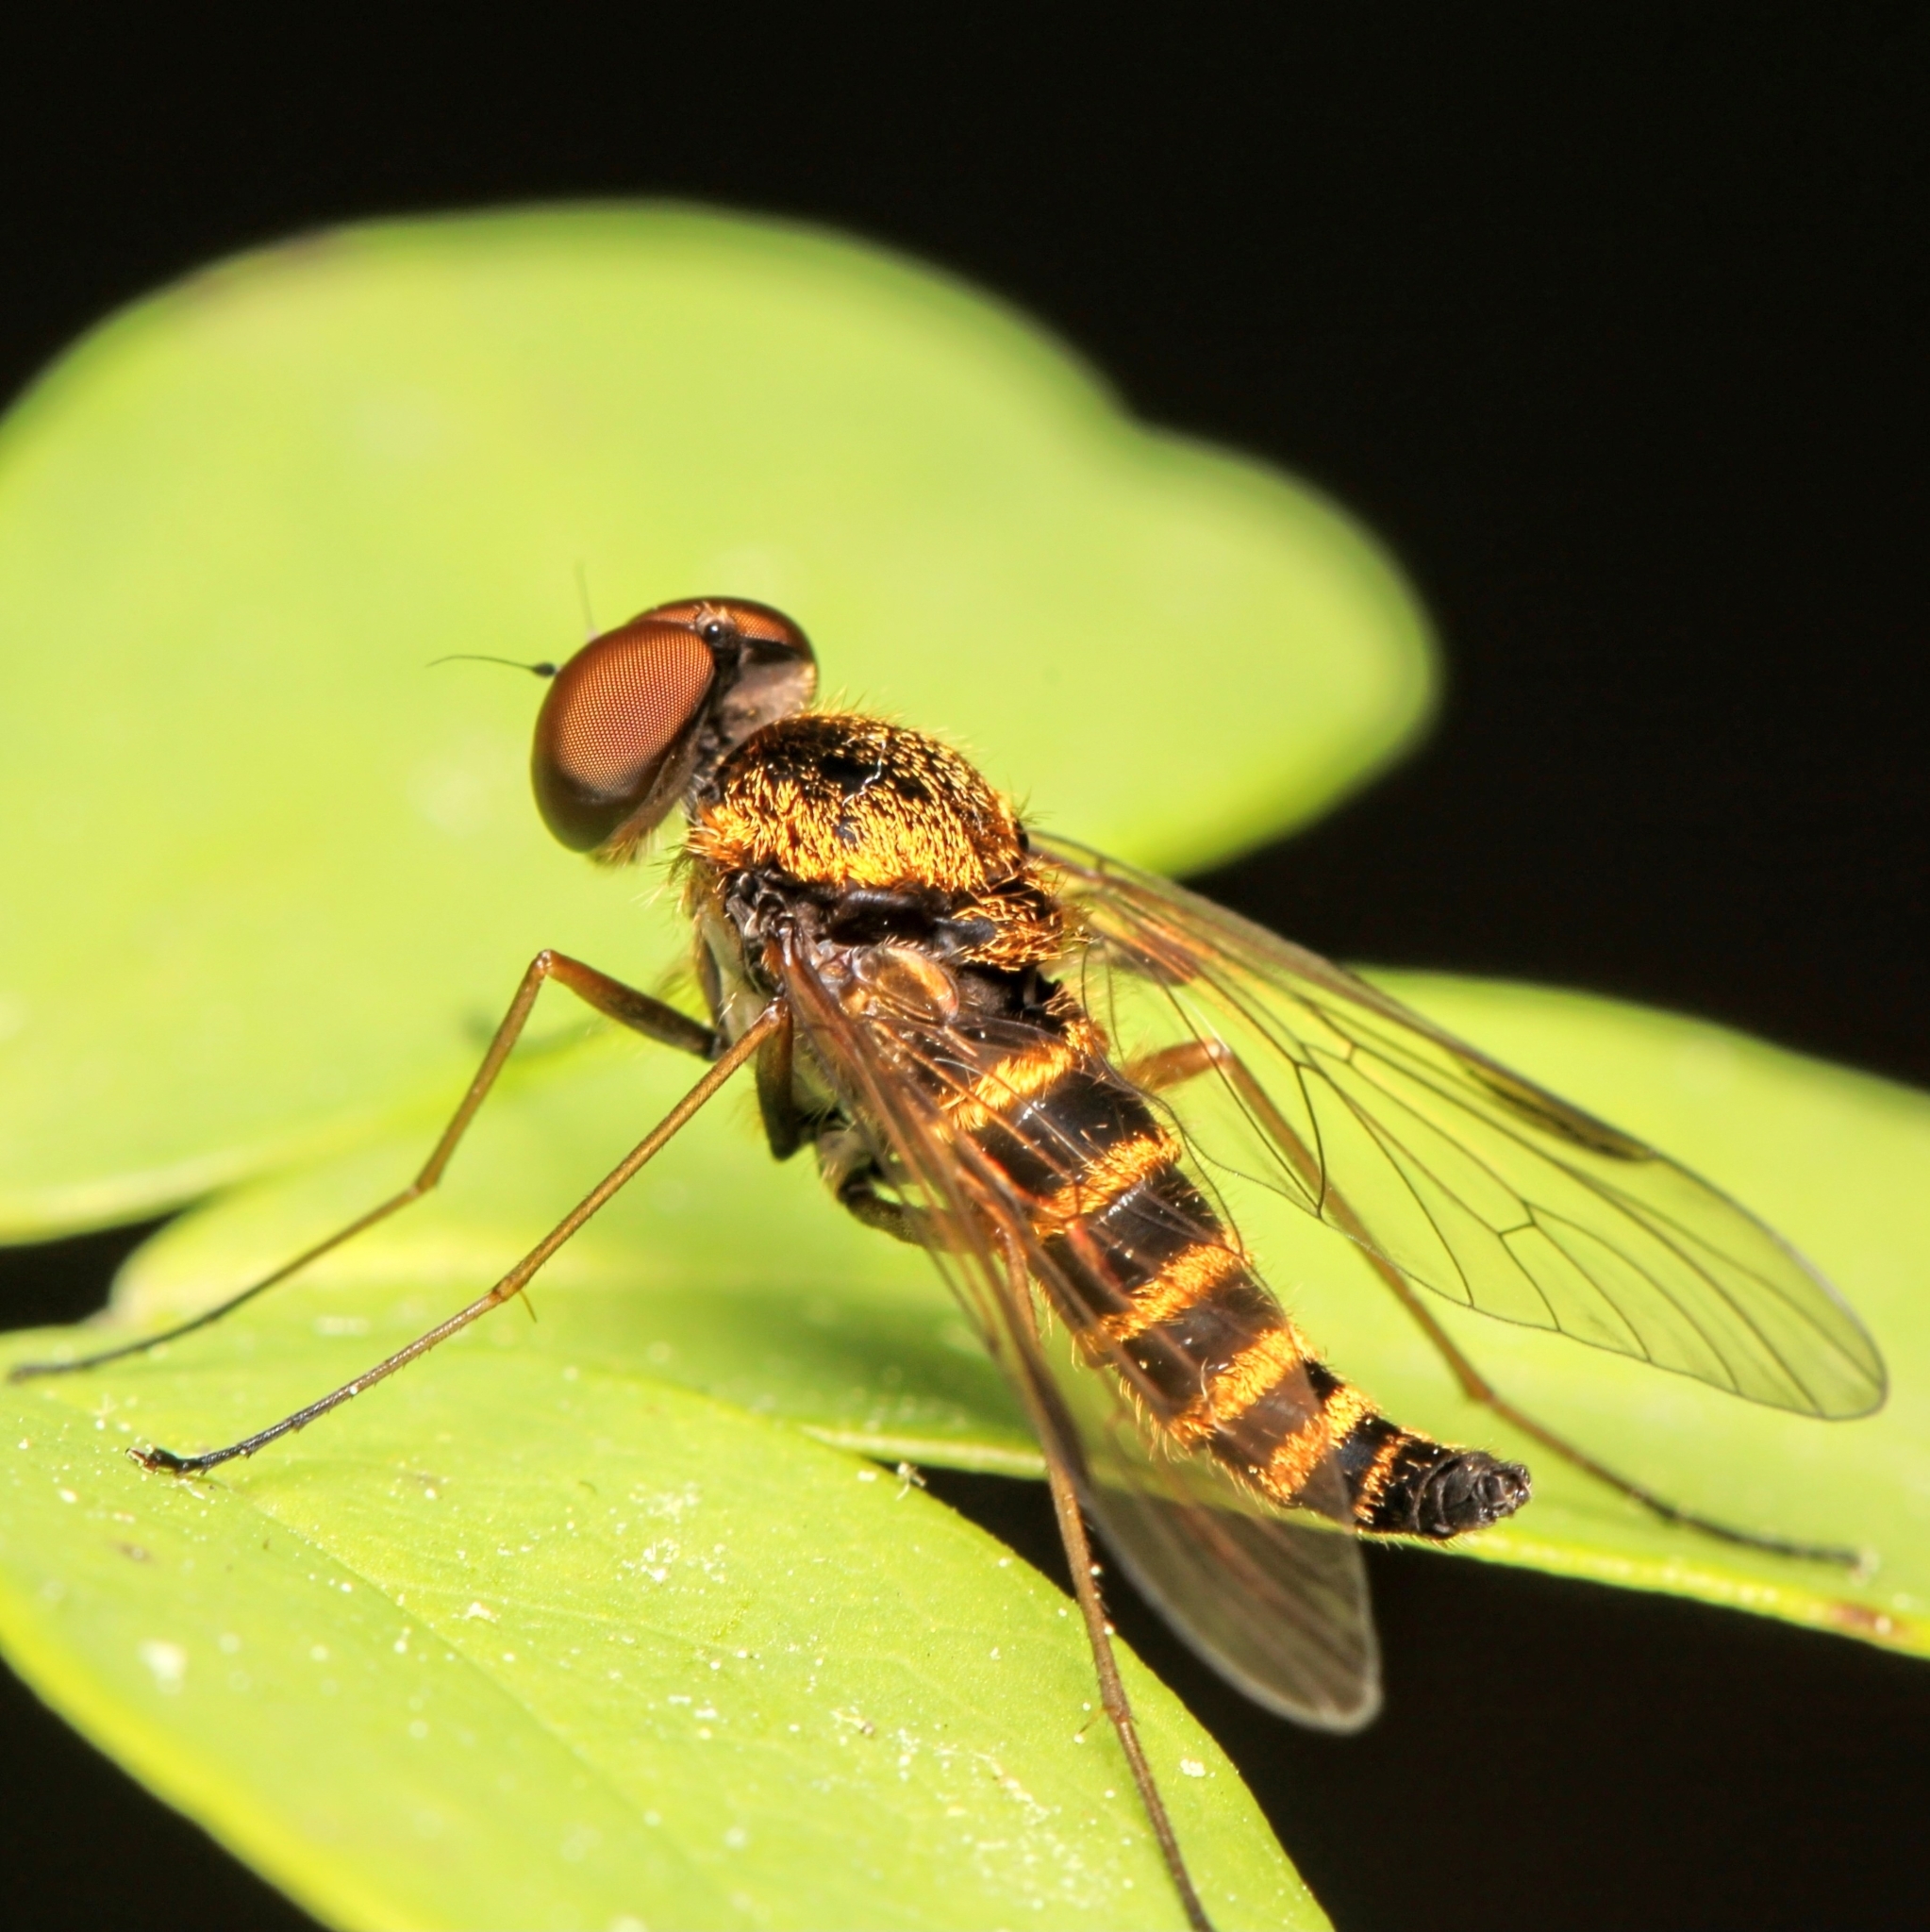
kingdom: Animalia
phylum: Arthropoda
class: Insecta
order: Diptera
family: Rhagionidae
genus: Chrysopilus
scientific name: Chrysopilus fasciatus
